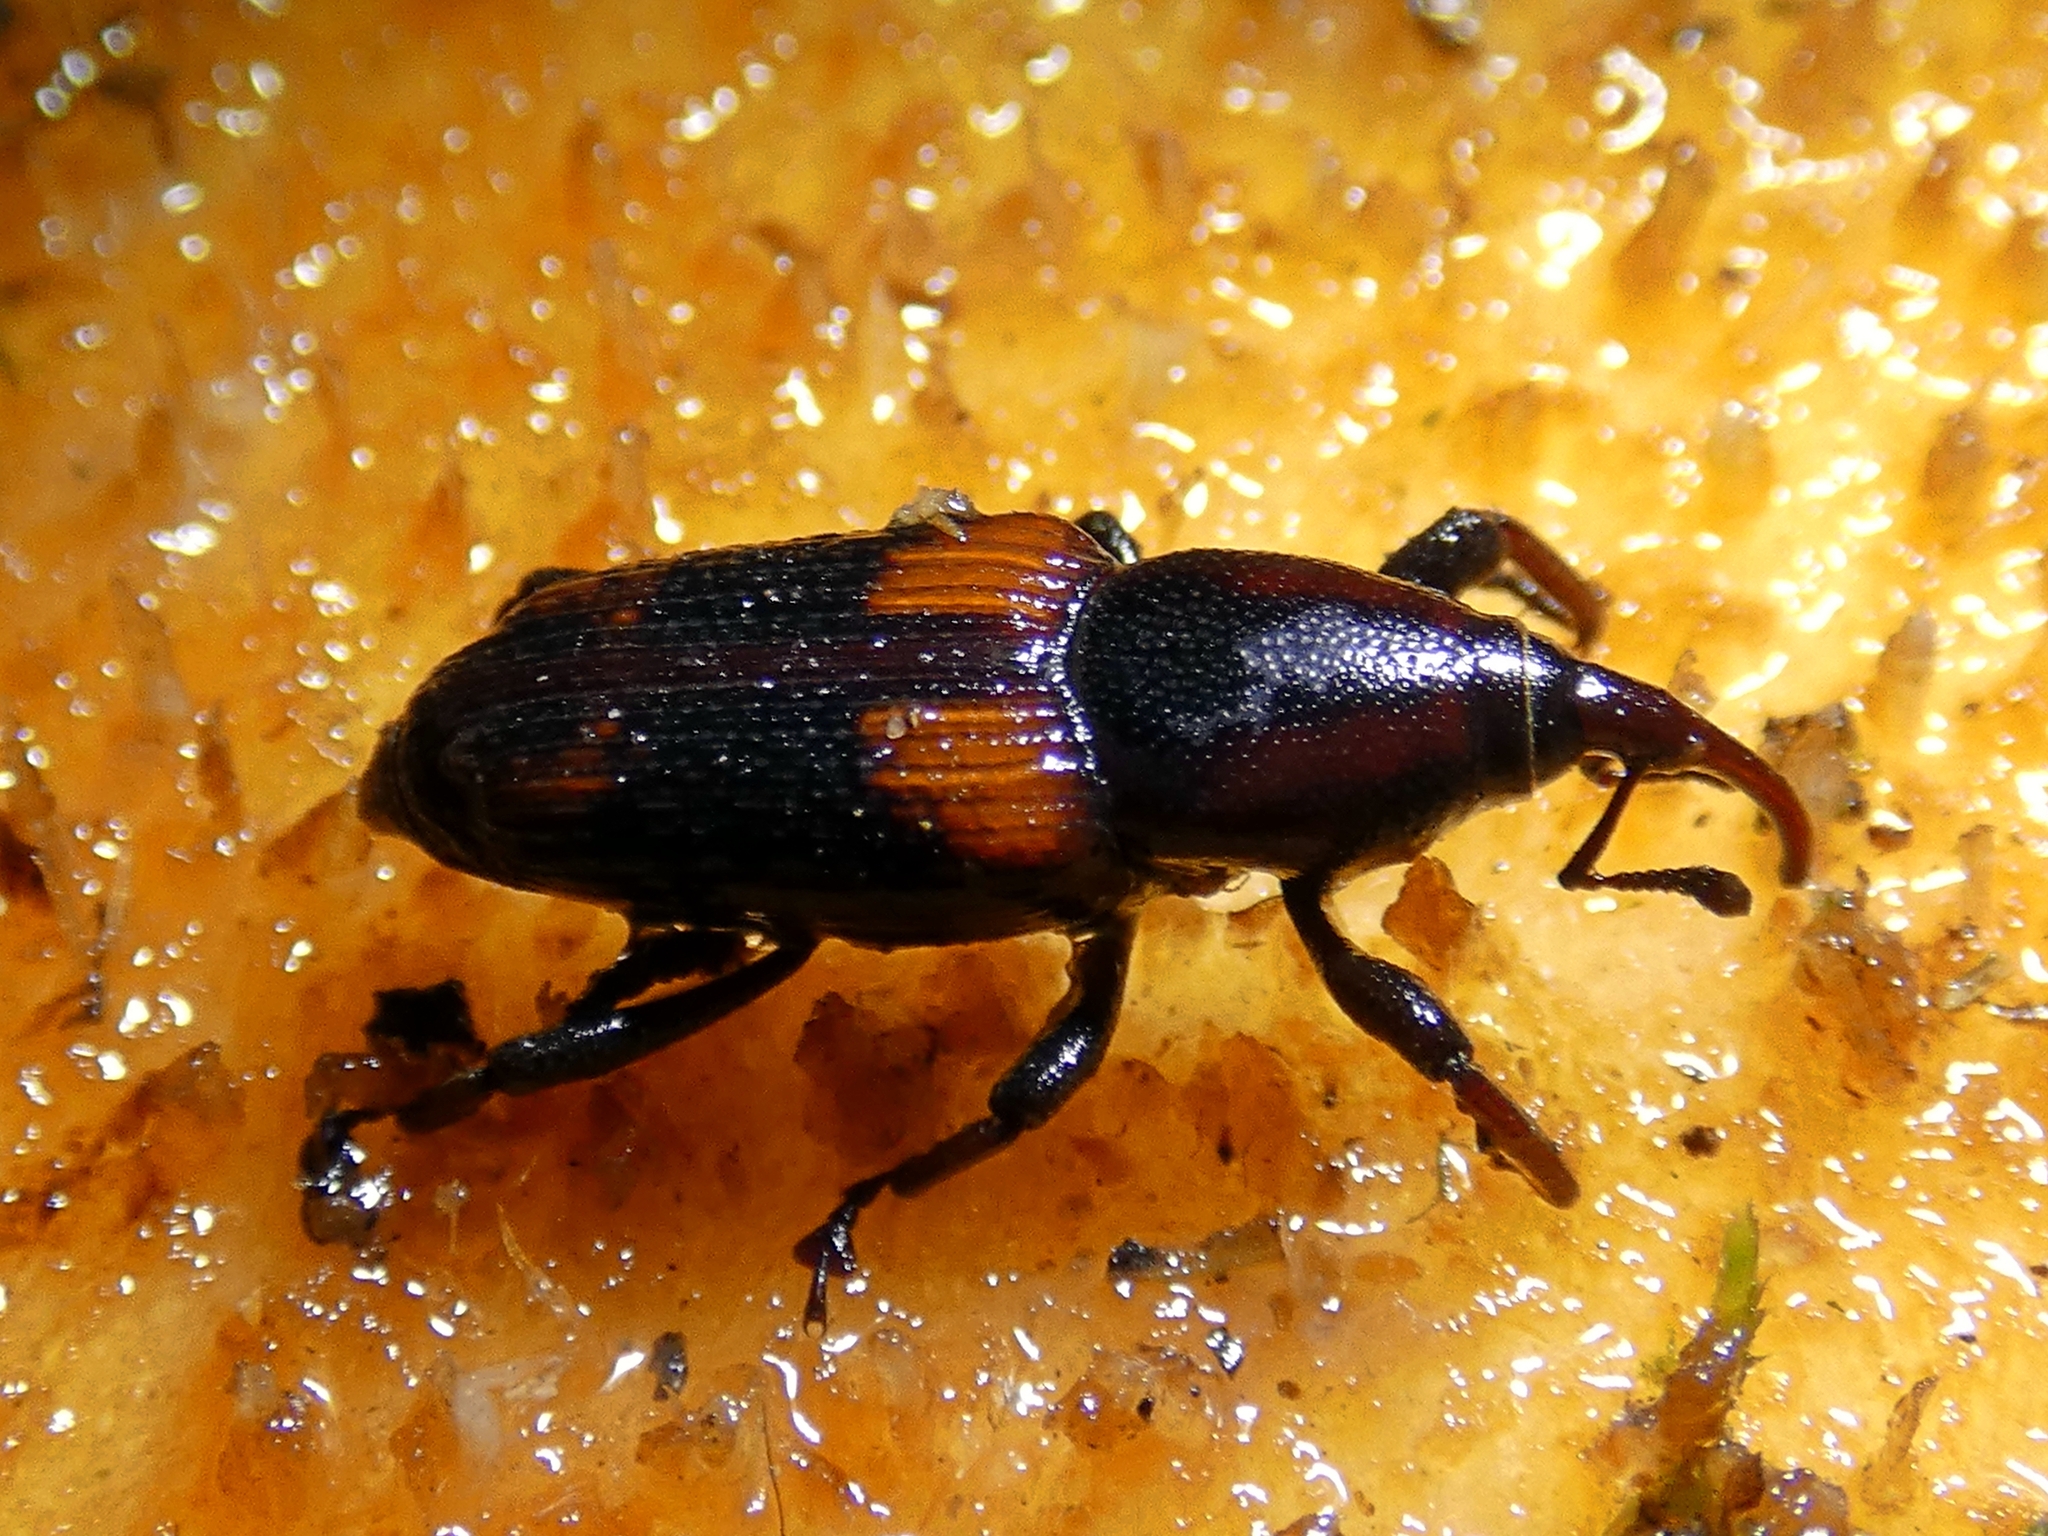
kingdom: Animalia
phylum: Arthropoda
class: Insecta
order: Coleoptera
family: Dryophthoridae
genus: Rhabdoscelus
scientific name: Rhabdoscelus obscurus
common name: Cane weevil borer
